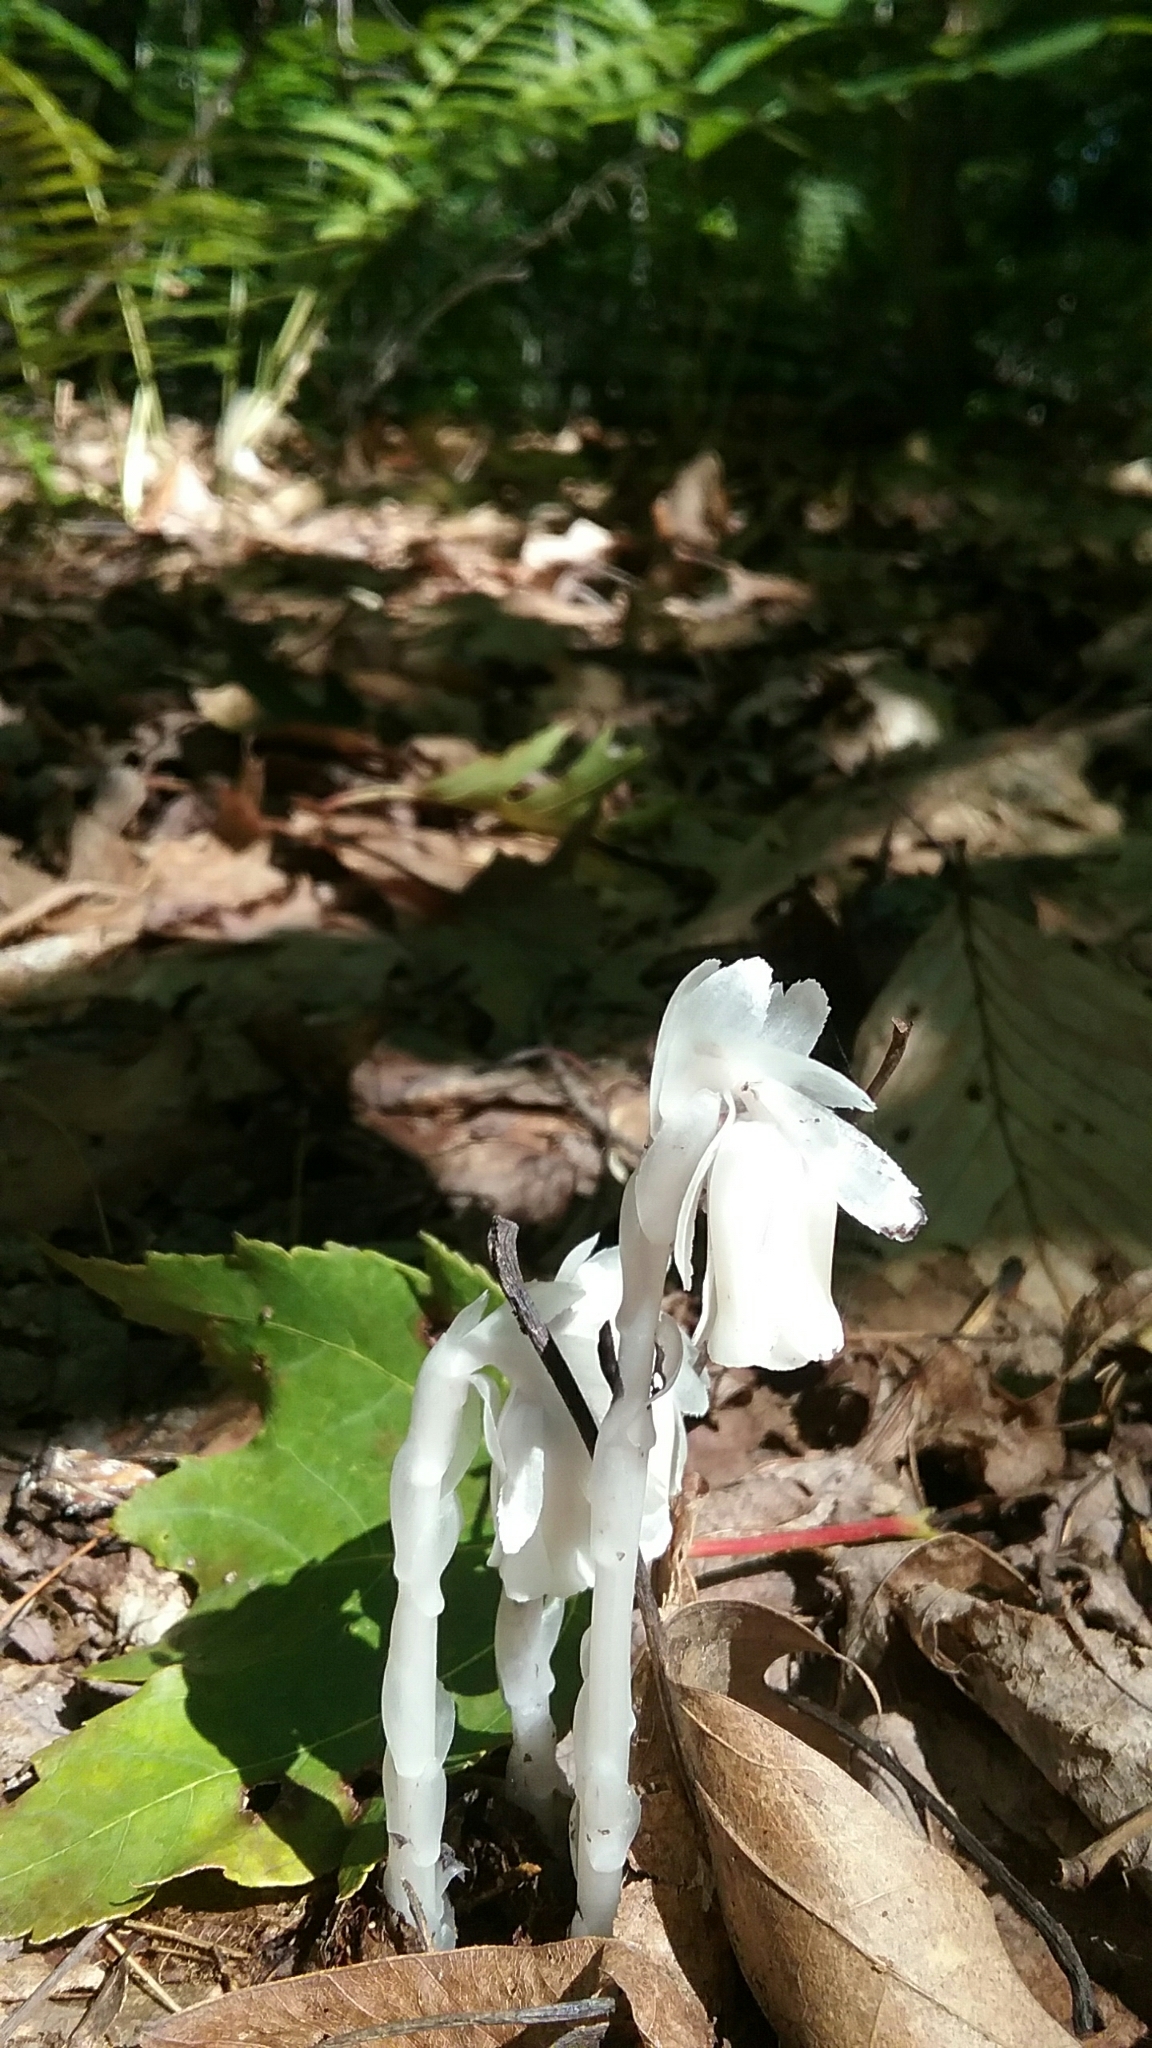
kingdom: Plantae
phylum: Tracheophyta
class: Magnoliopsida
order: Ericales
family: Ericaceae
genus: Monotropa
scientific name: Monotropa uniflora
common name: Convulsion root
